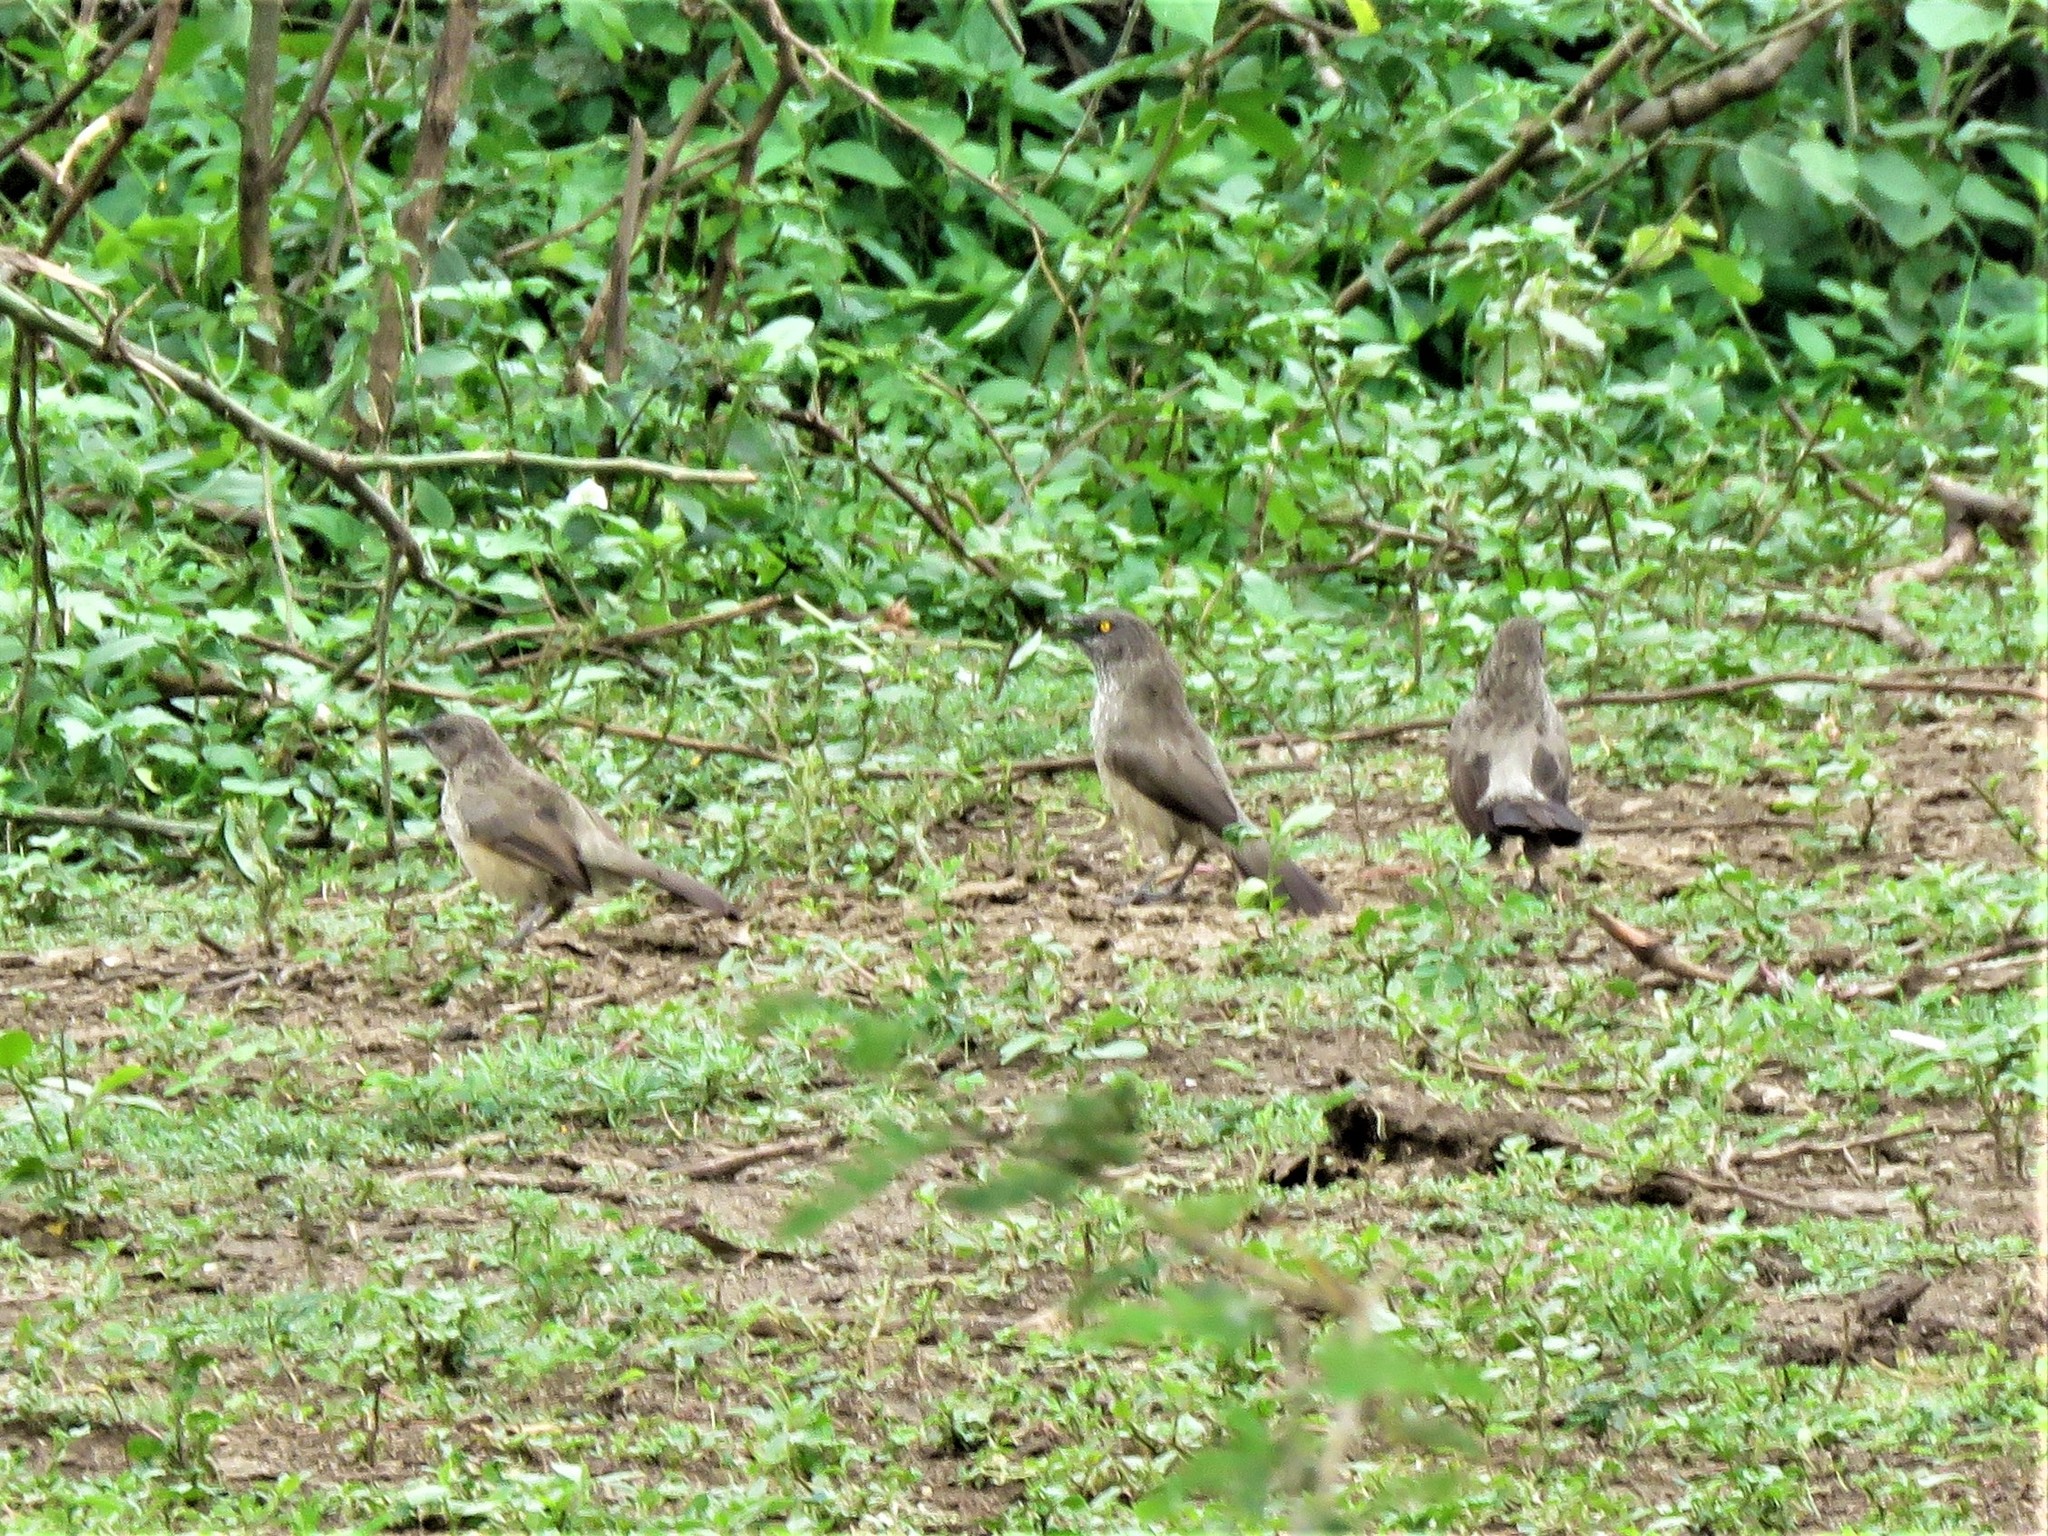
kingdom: Animalia
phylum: Chordata
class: Aves
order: Passeriformes
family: Leiothrichidae
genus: Turdoides
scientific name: Turdoides jardineii
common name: Arrow-marked babbler
